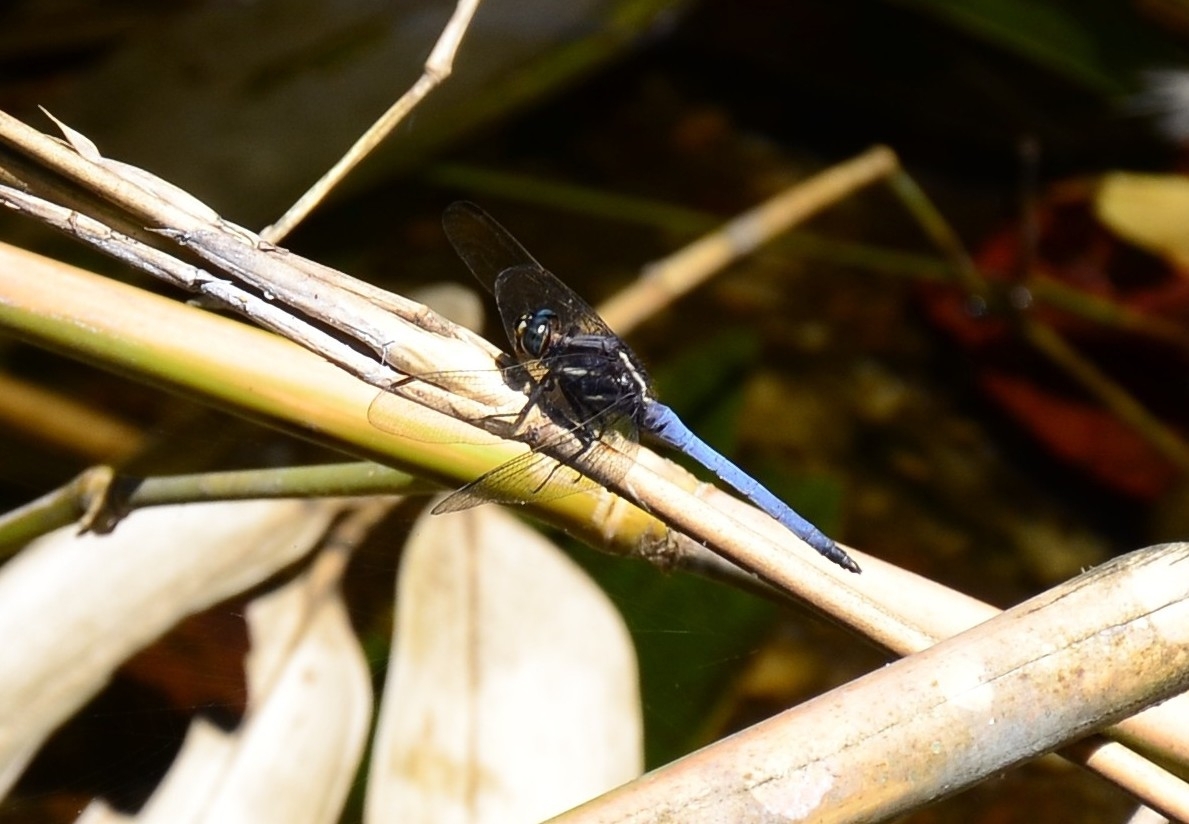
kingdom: Animalia
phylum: Arthropoda
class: Insecta
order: Odonata
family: Libellulidae
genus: Orthetrum
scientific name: Orthetrum glaucum
